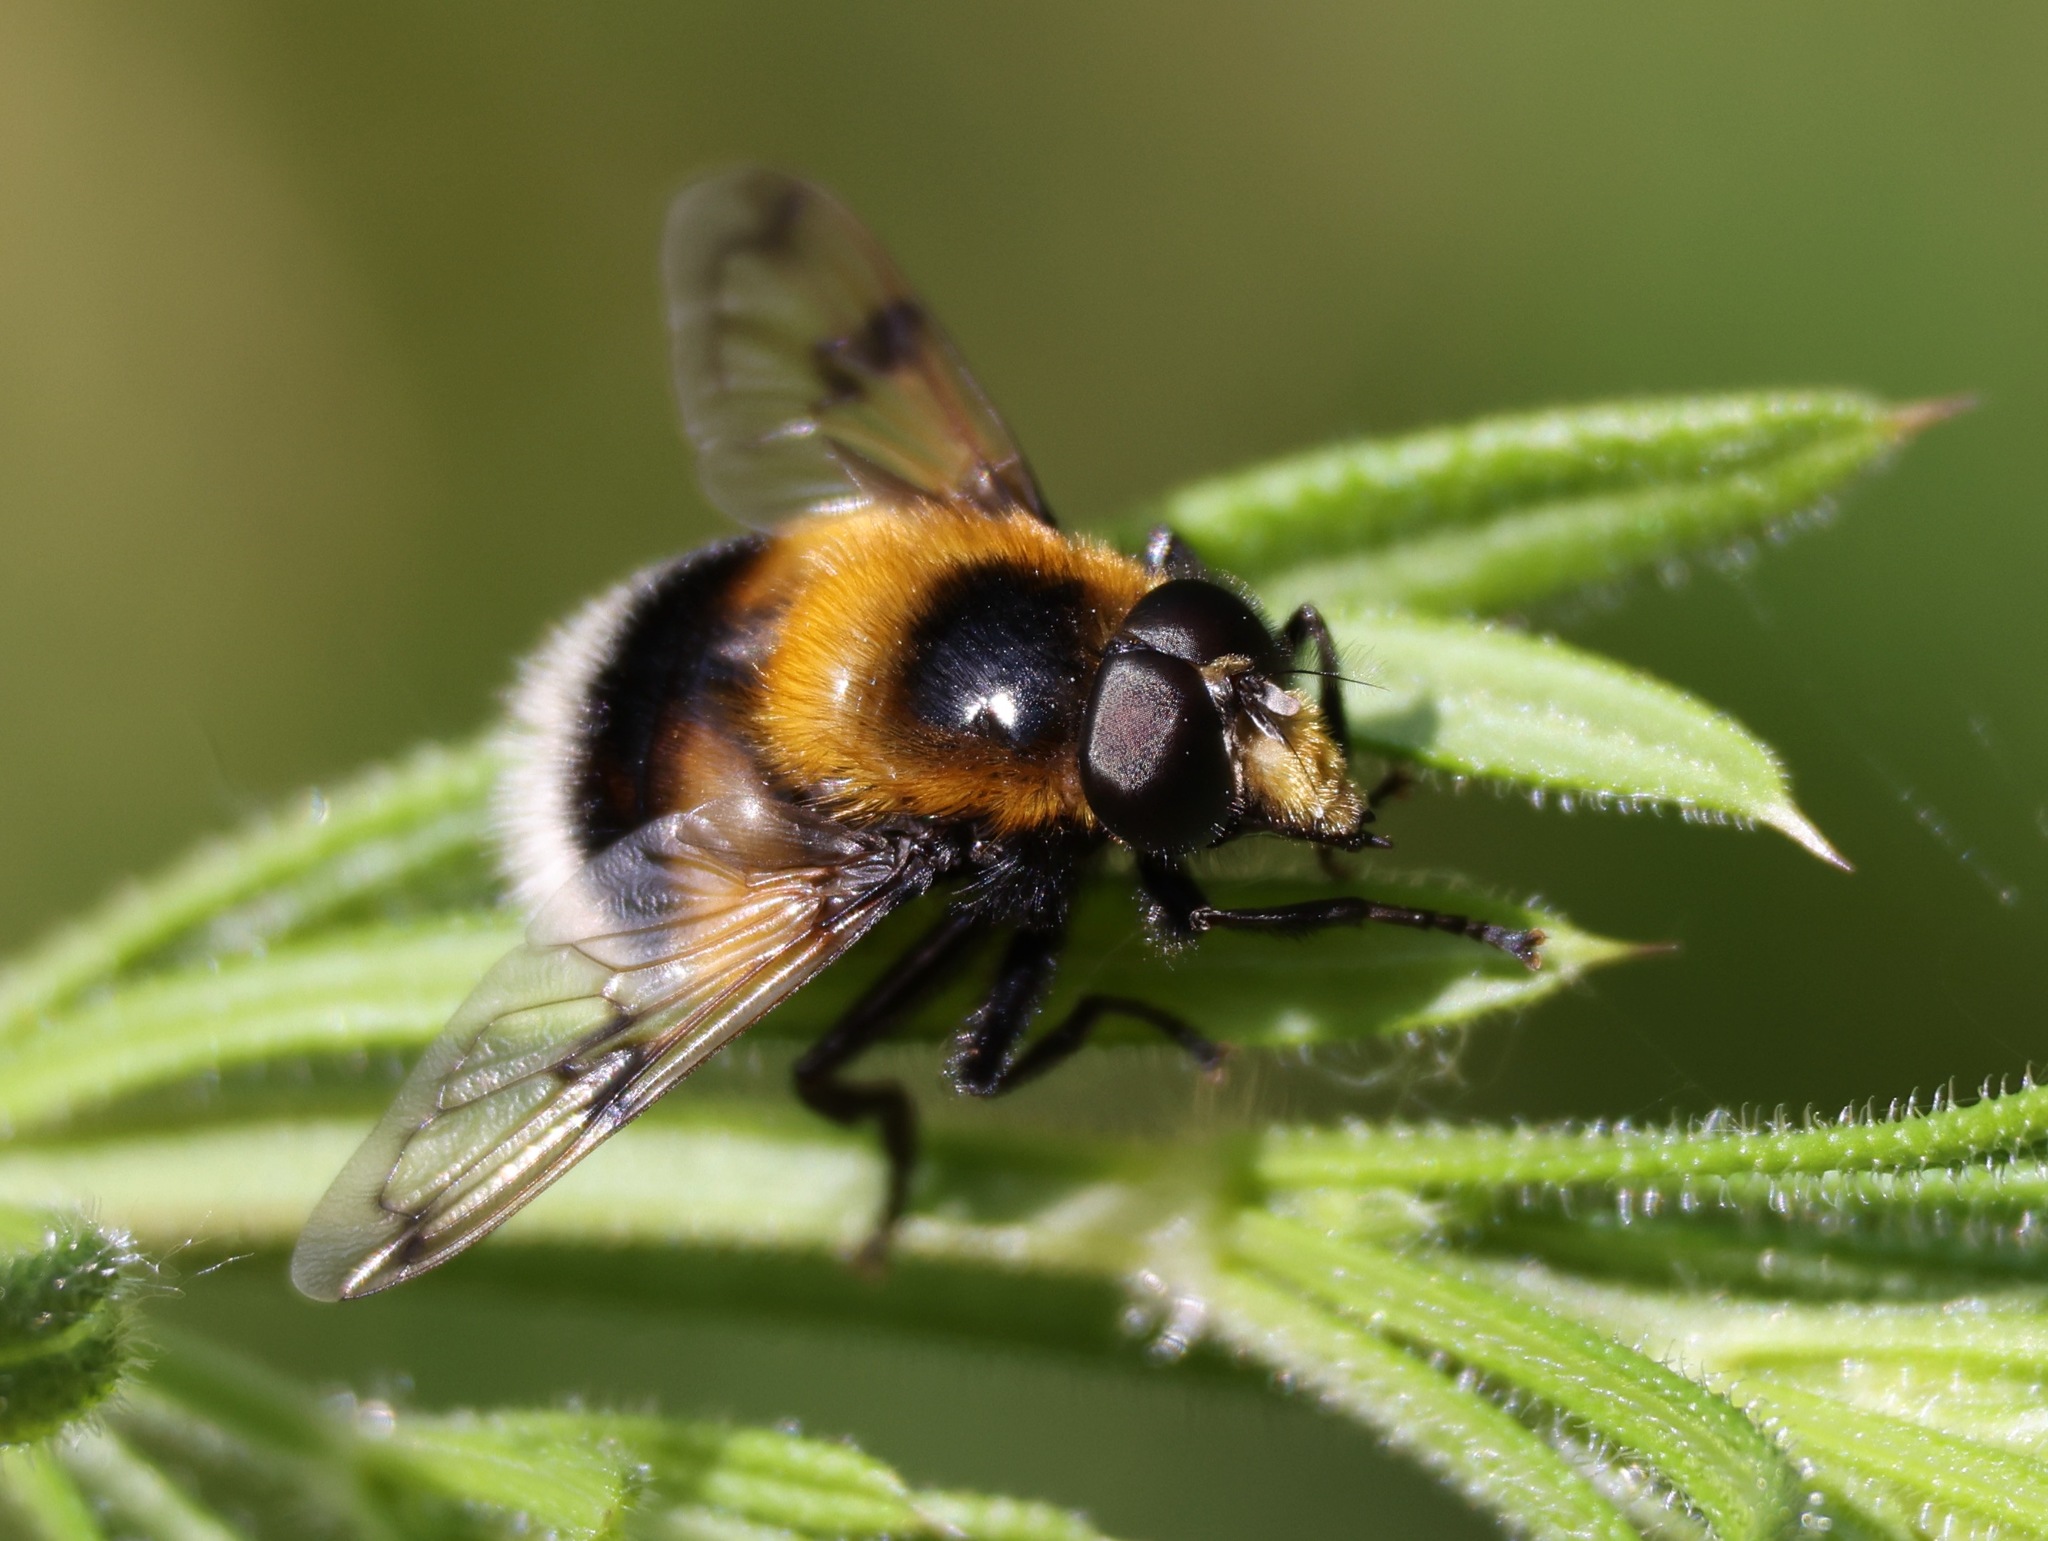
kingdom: Animalia
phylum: Arthropoda
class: Insecta
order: Diptera
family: Syrphidae
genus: Volucella
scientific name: Volucella bombylans
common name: Bumble bee hover fly
